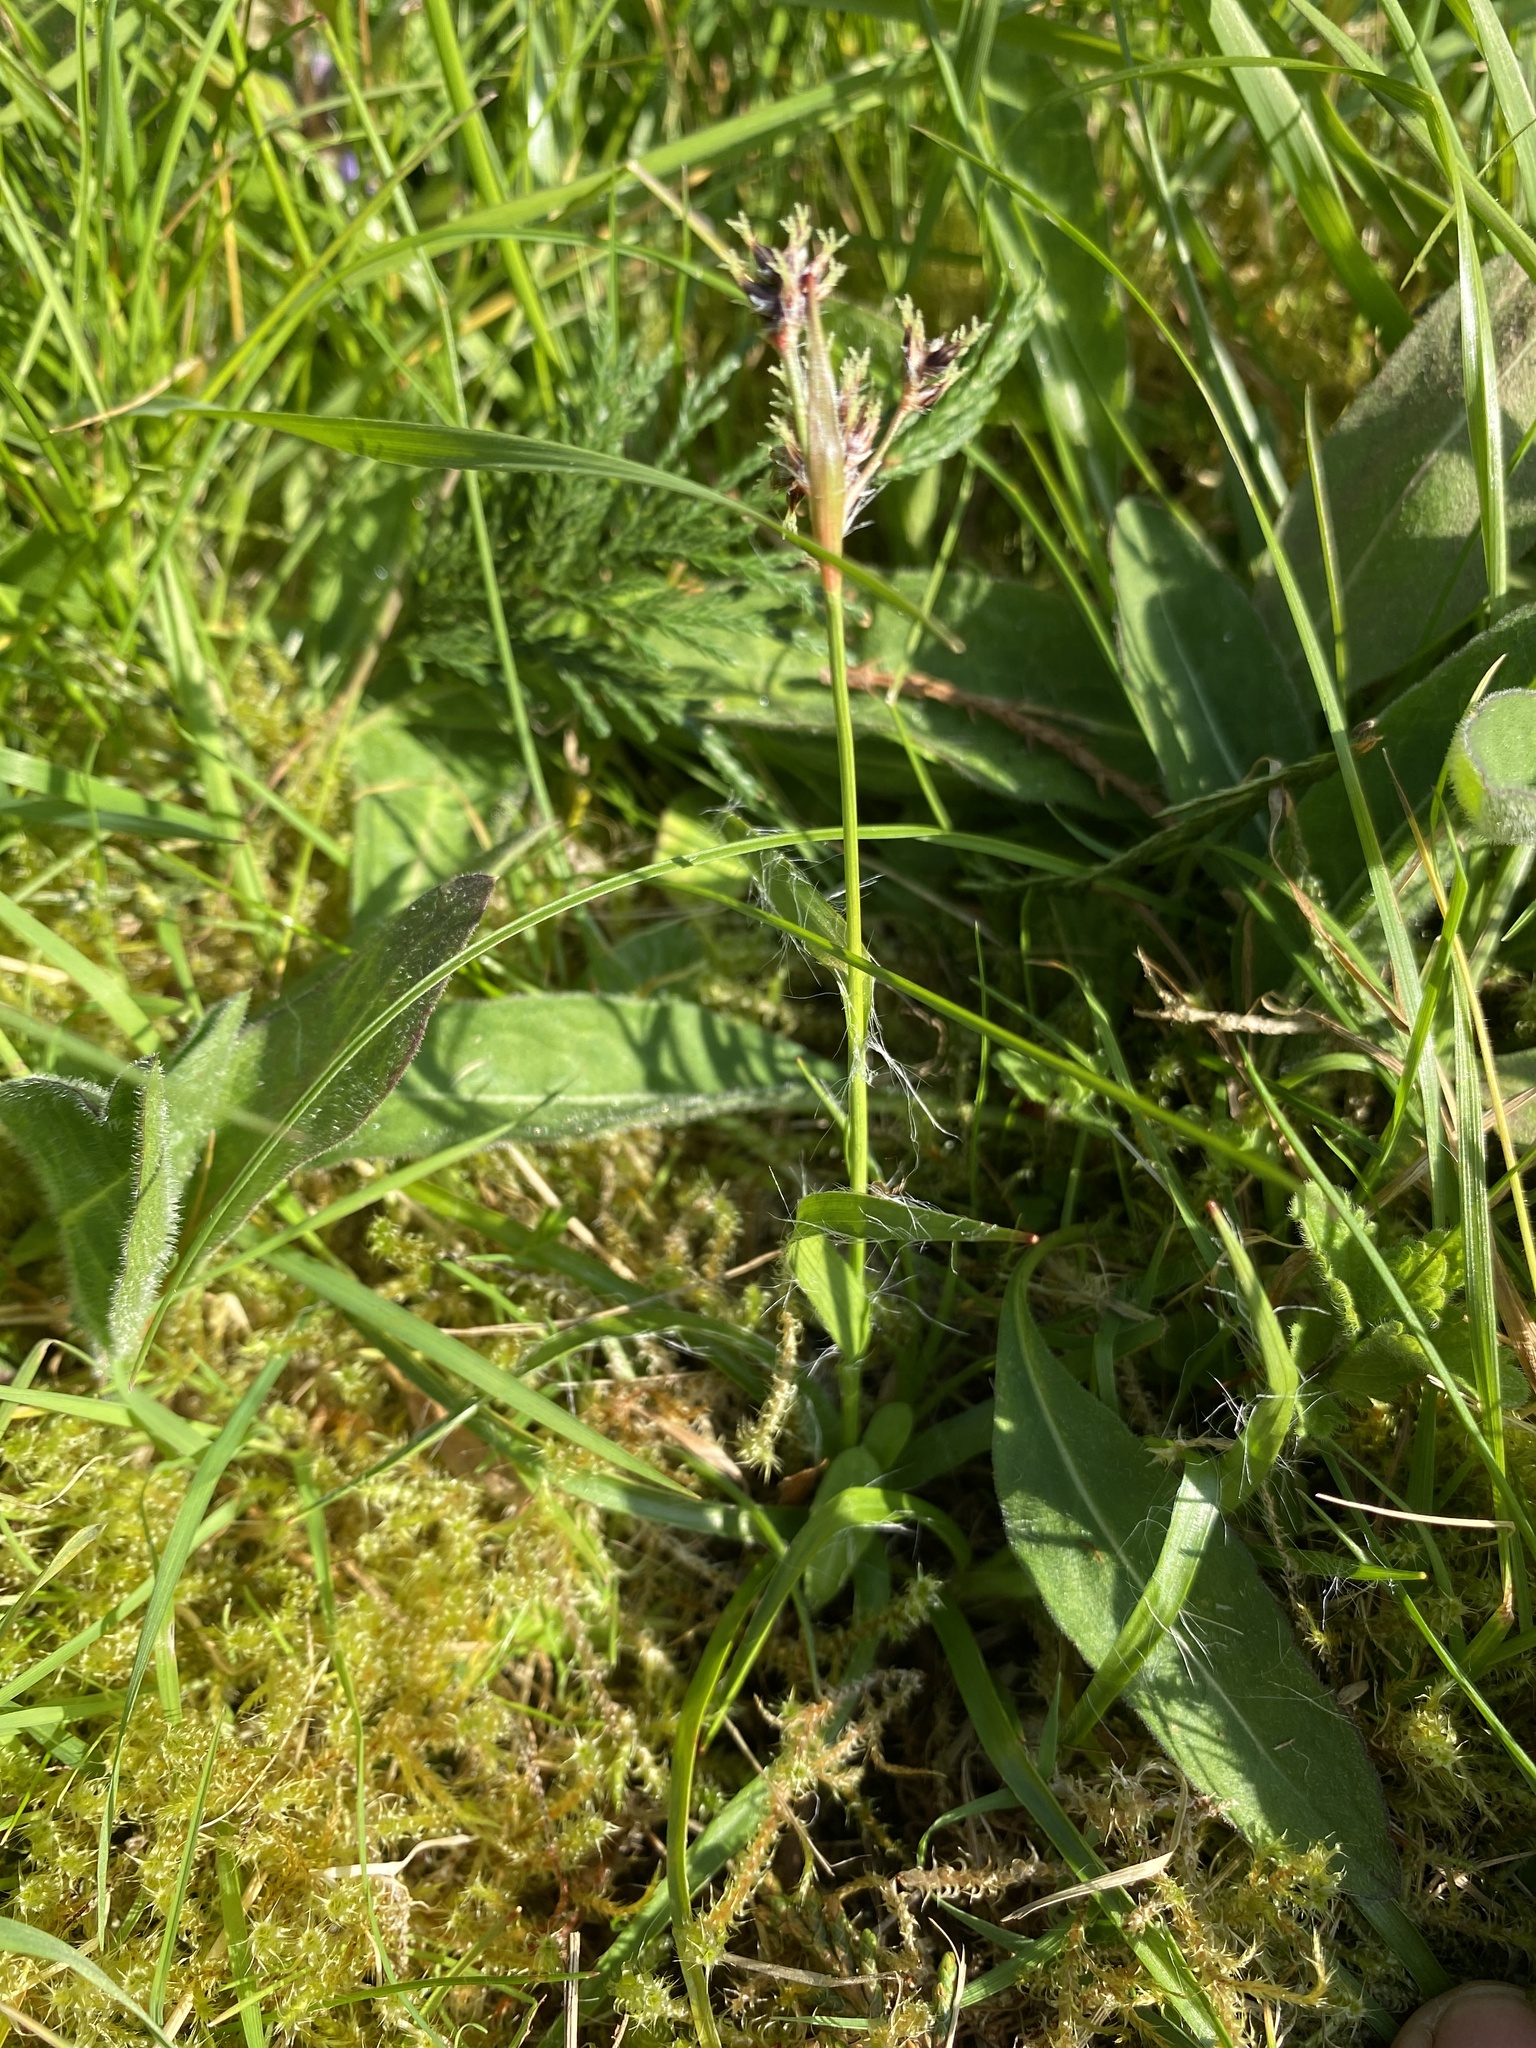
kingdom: Plantae
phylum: Tracheophyta
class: Liliopsida
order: Poales
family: Juncaceae
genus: Luzula
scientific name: Luzula campestris
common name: Field wood-rush
